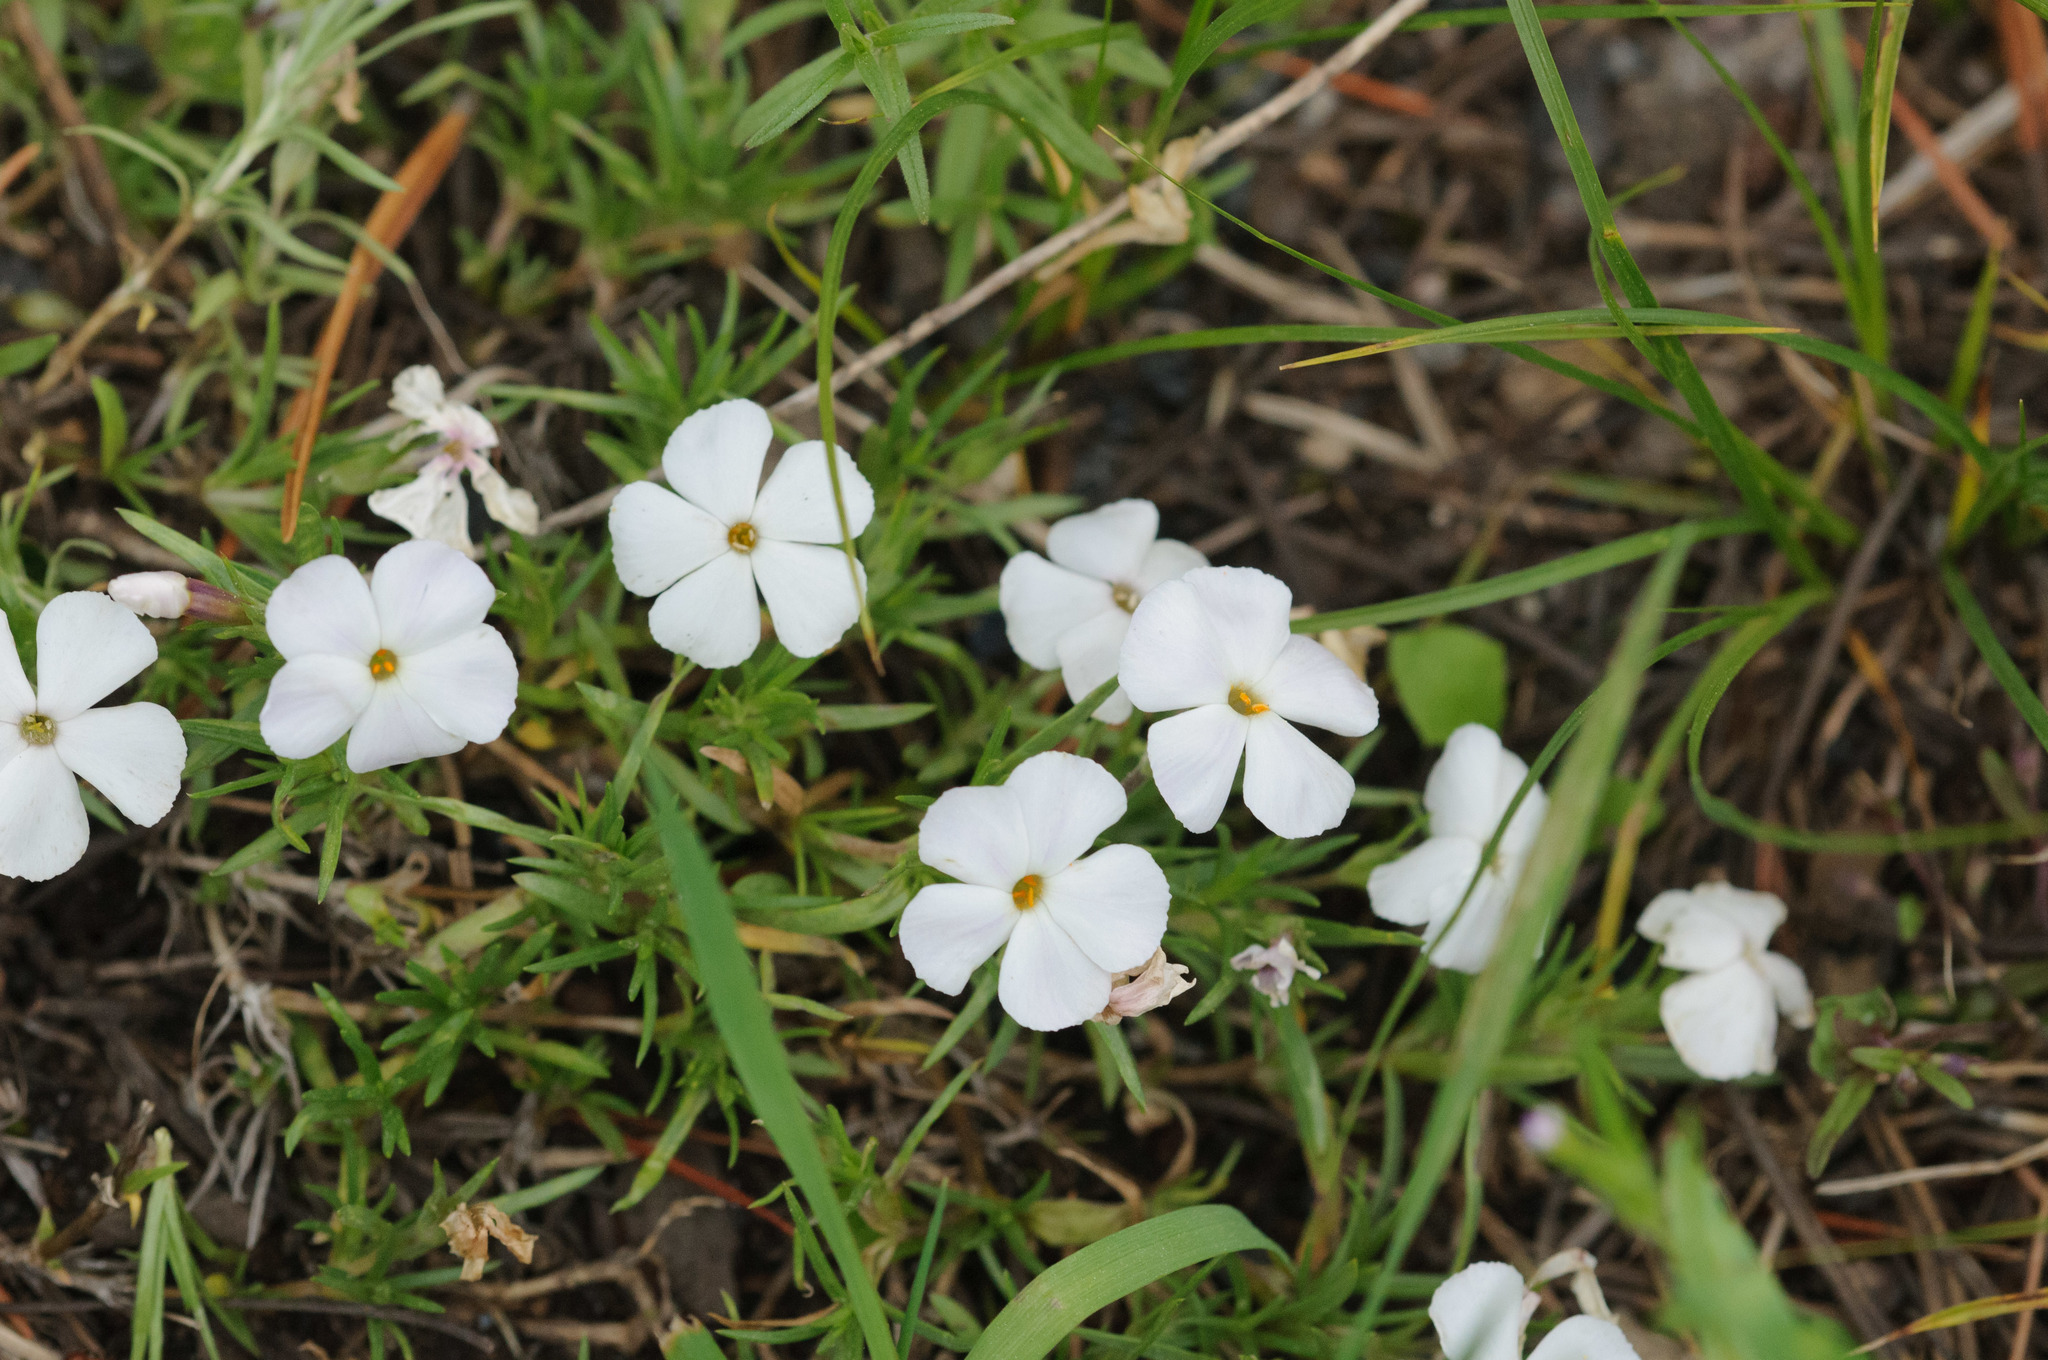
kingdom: Plantae
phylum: Tracheophyta
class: Magnoliopsida
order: Ericales
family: Polemoniaceae
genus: Phlox
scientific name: Phlox multiflora
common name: Rocky mountain phlox
